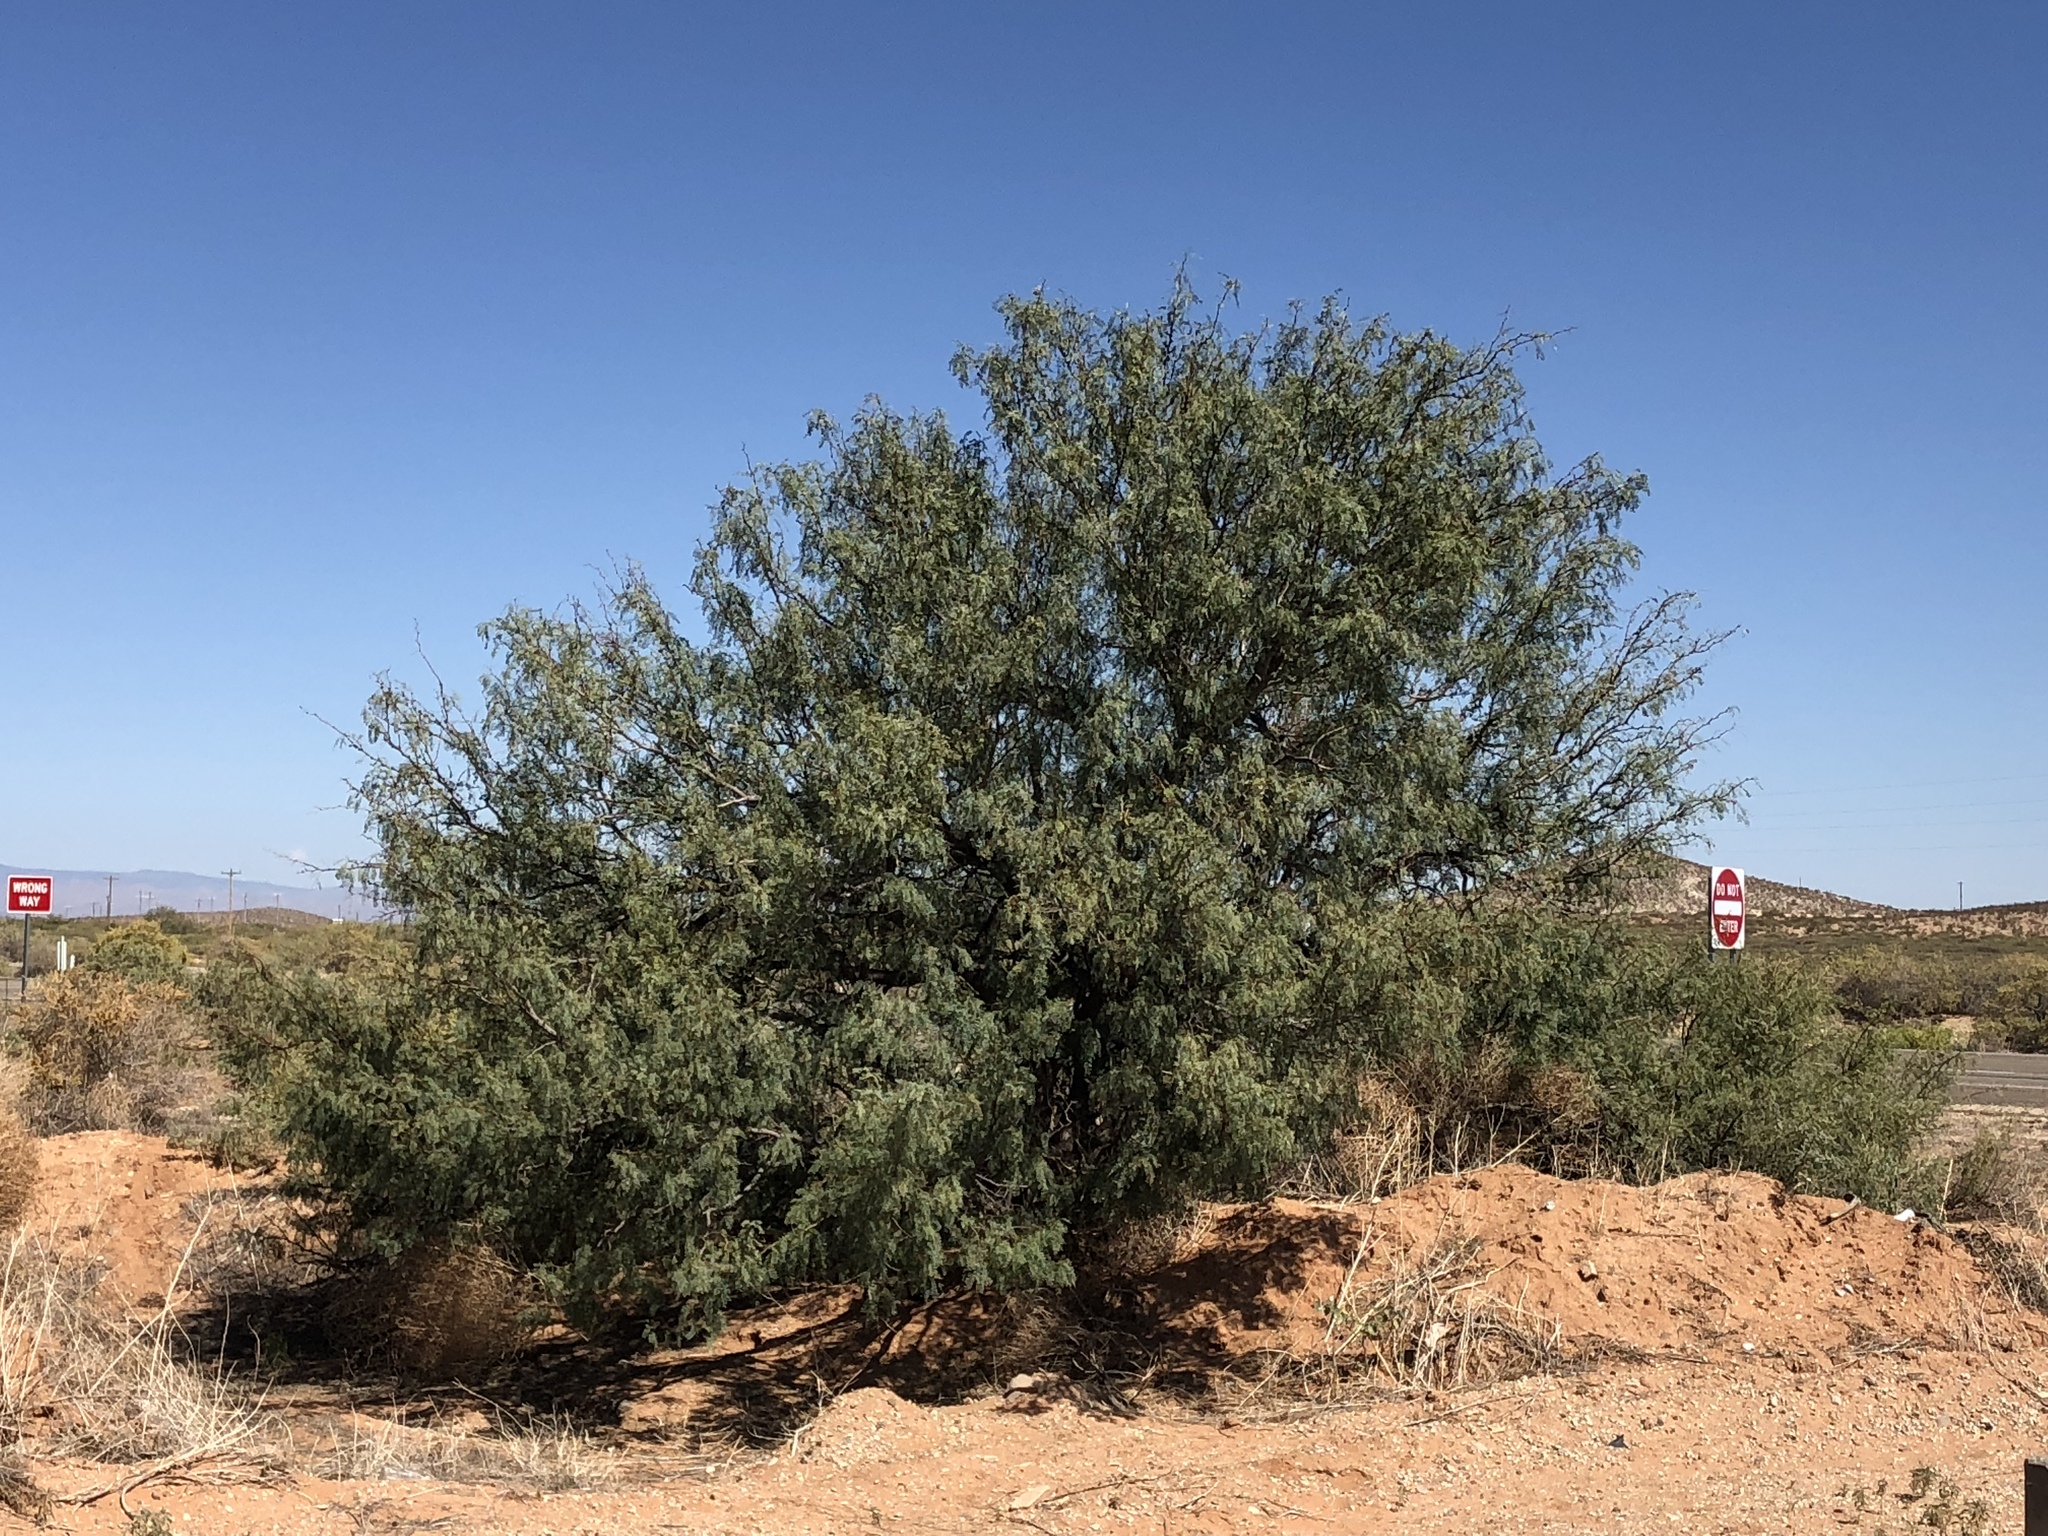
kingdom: Plantae
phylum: Tracheophyta
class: Magnoliopsida
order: Fabales
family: Fabaceae
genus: Prosopis
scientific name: Prosopis glandulosa
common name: Honey mesquite
